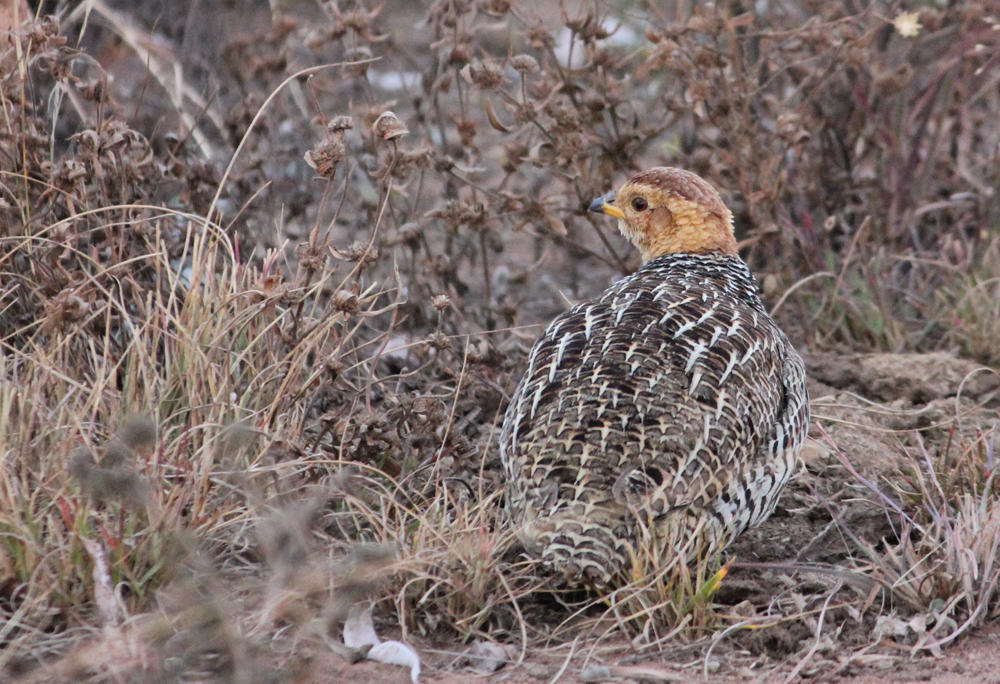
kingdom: Animalia
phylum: Chordata
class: Aves
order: Galliformes
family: Phasianidae
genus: Campocolinus
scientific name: Campocolinus coqui
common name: Coqui francolin
